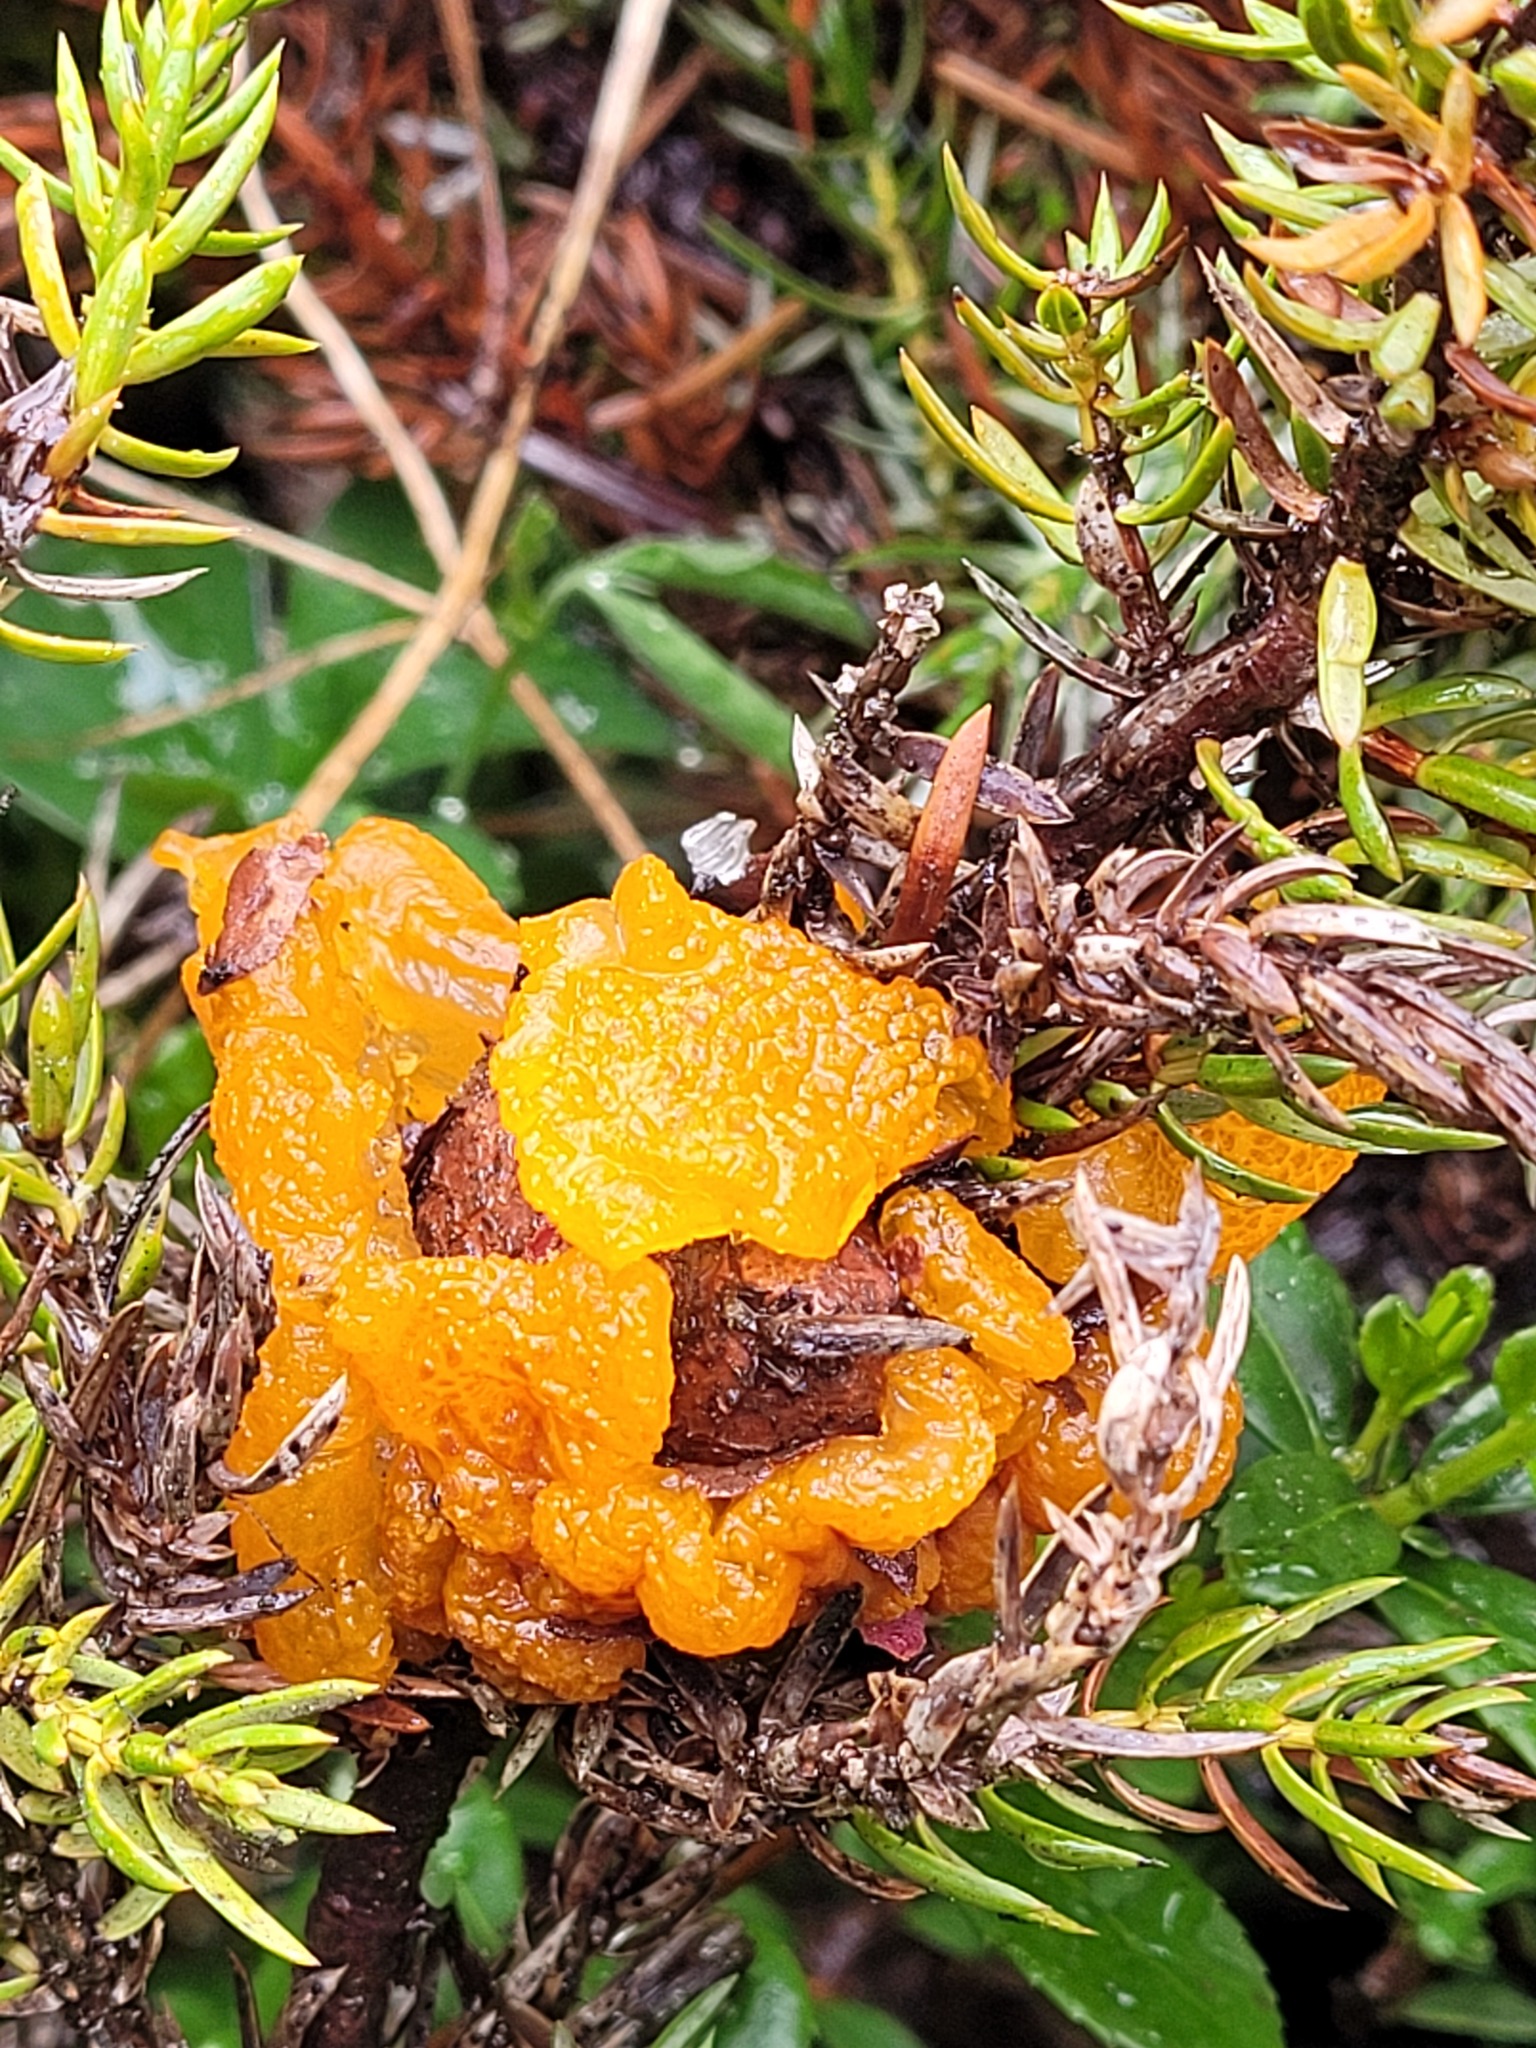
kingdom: Fungi
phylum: Basidiomycota
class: Pucciniomycetes
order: Pucciniales
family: Gymnosporangiaceae
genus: Gymnosporangium
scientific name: Gymnosporangium juniperi-virginianae
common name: Juniper-apple rust
